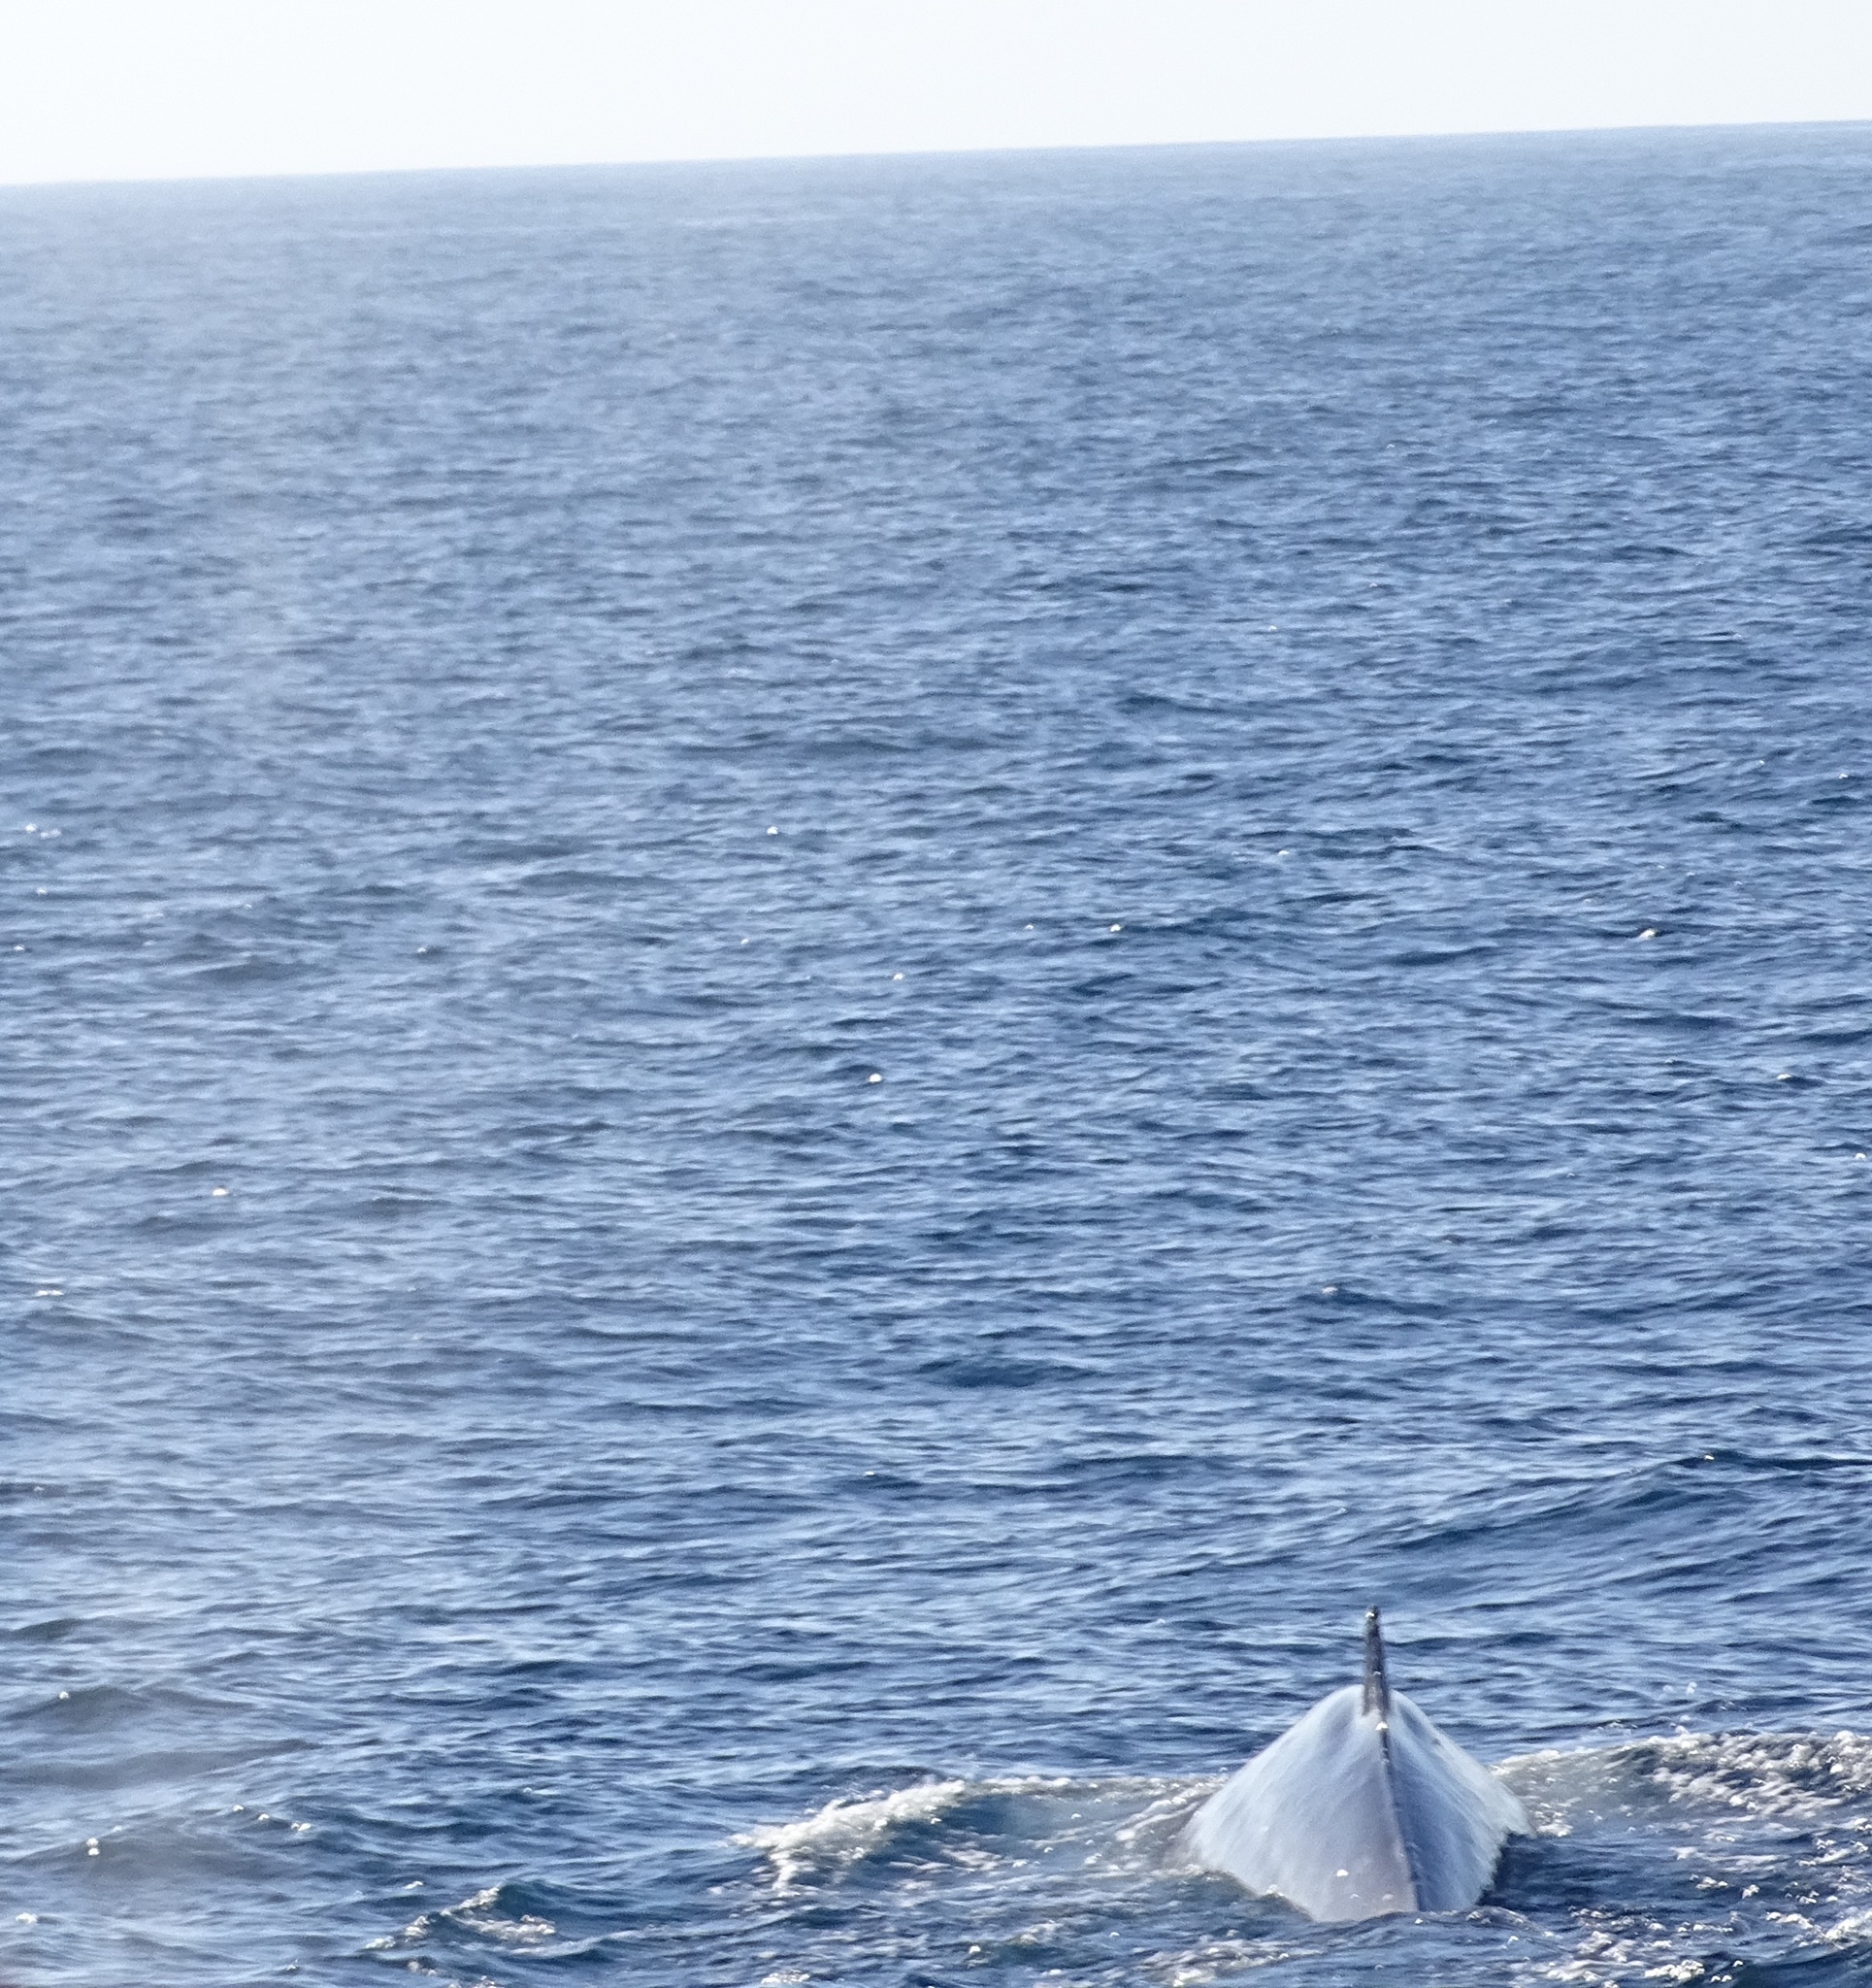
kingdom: Animalia
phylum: Chordata
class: Mammalia
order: Cetacea
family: Balaenopteridae
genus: Balaenoptera
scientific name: Balaenoptera physalus
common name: Fin whale
